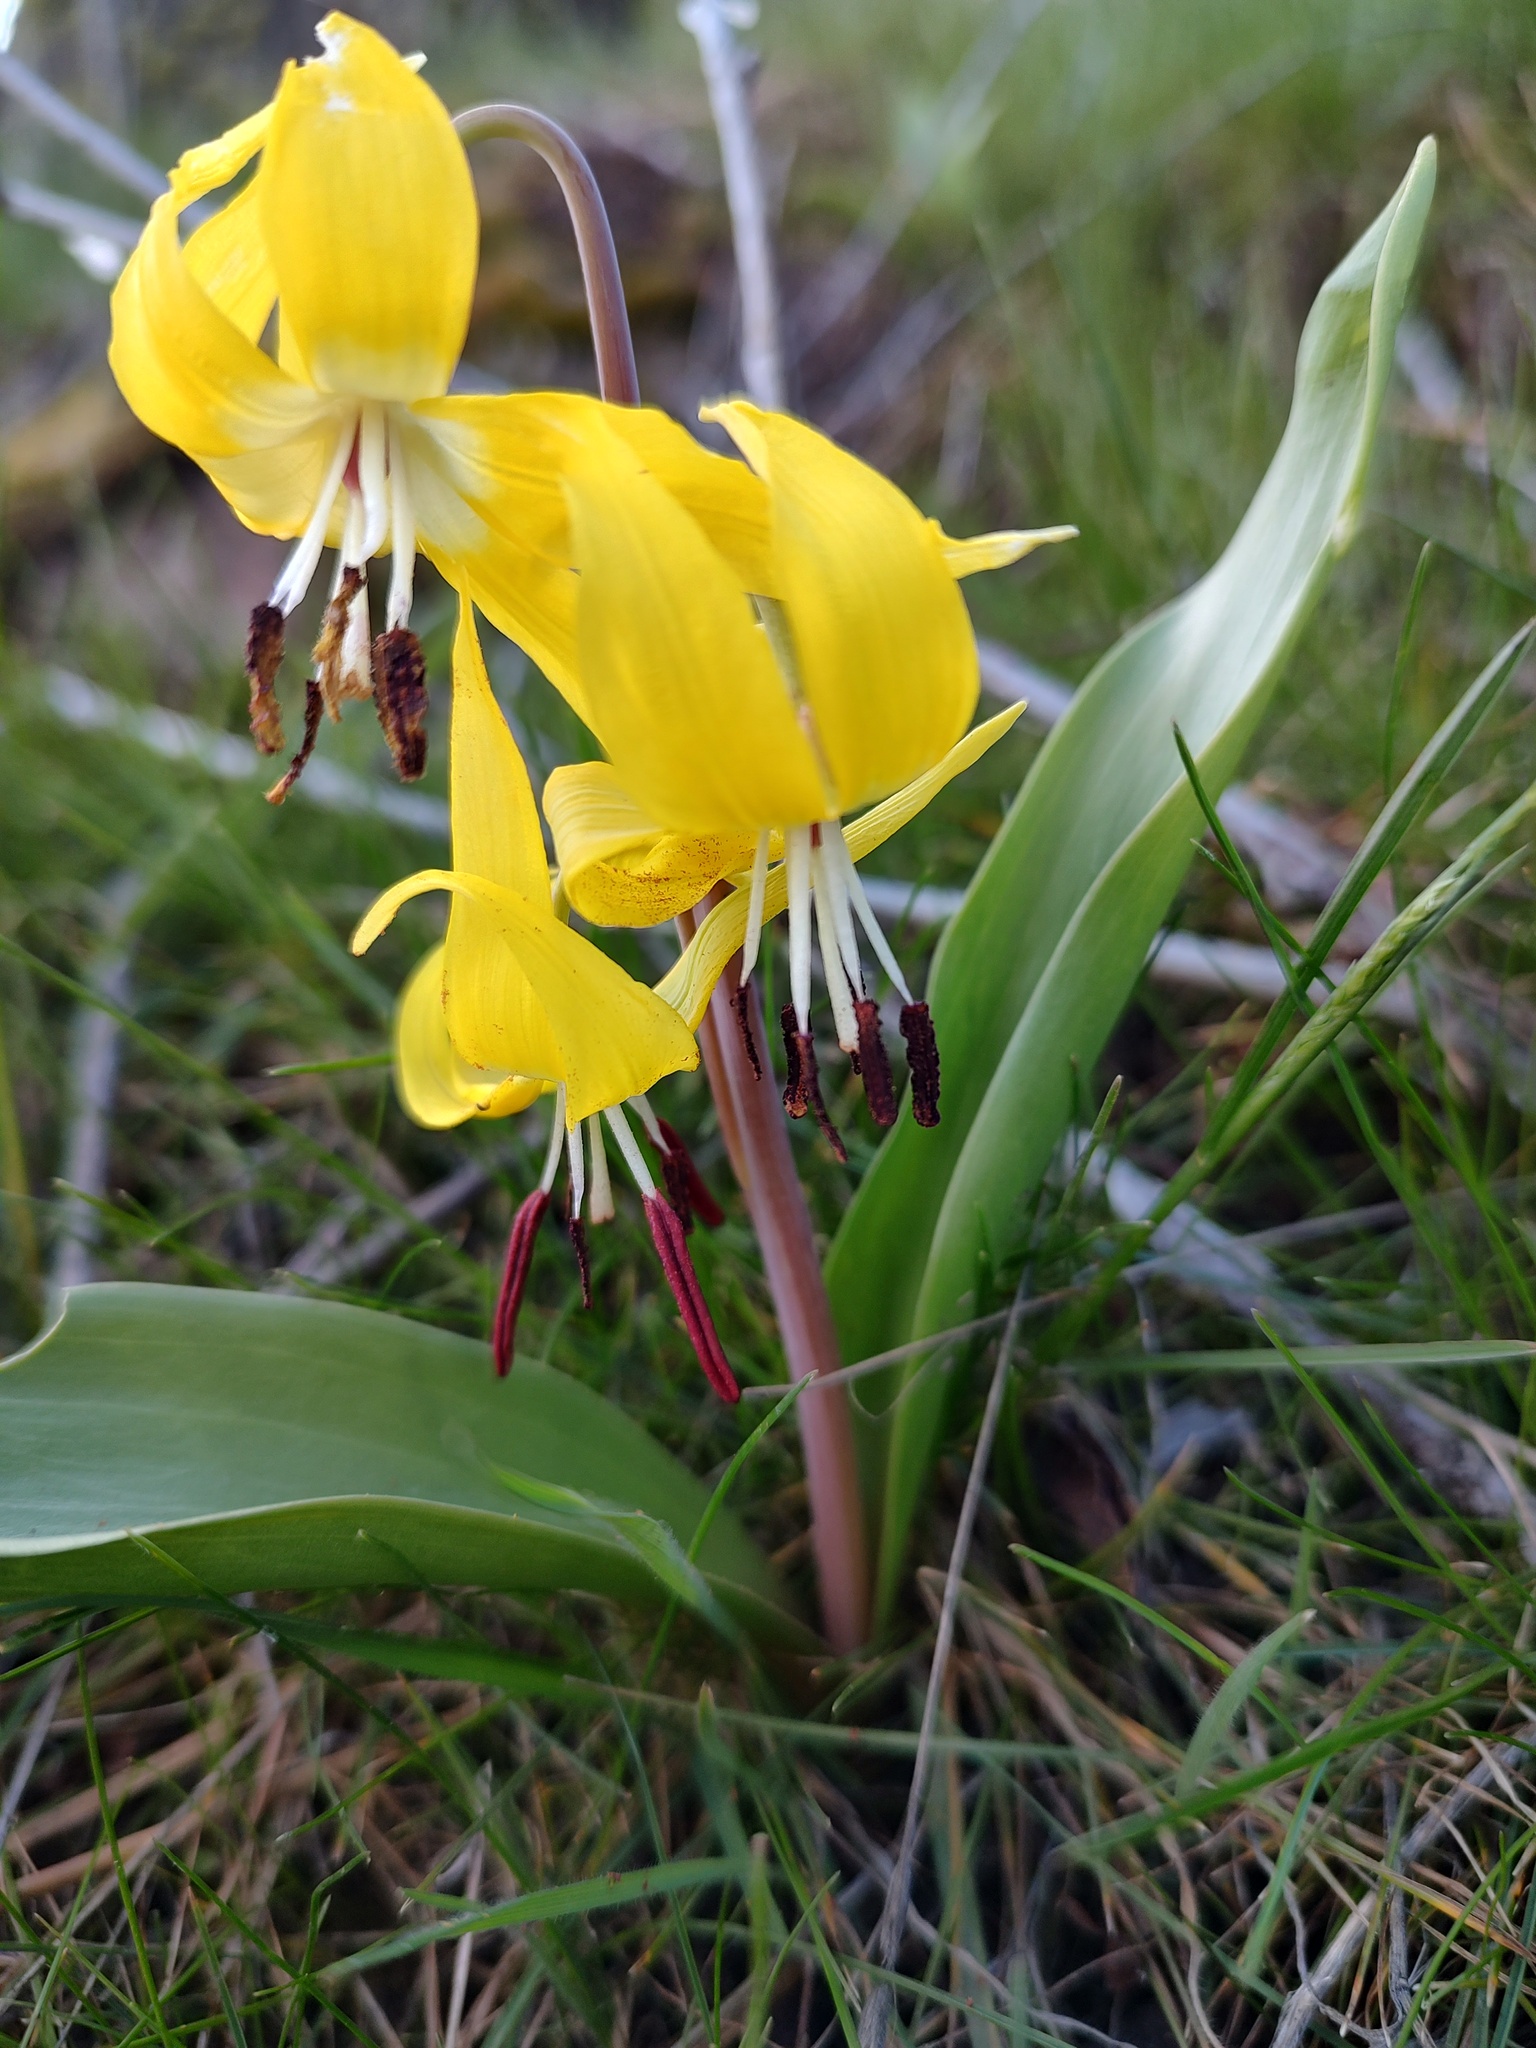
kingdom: Plantae
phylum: Tracheophyta
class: Liliopsida
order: Liliales
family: Liliaceae
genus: Erythronium
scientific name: Erythronium grandiflorum
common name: Avalanche-lily
